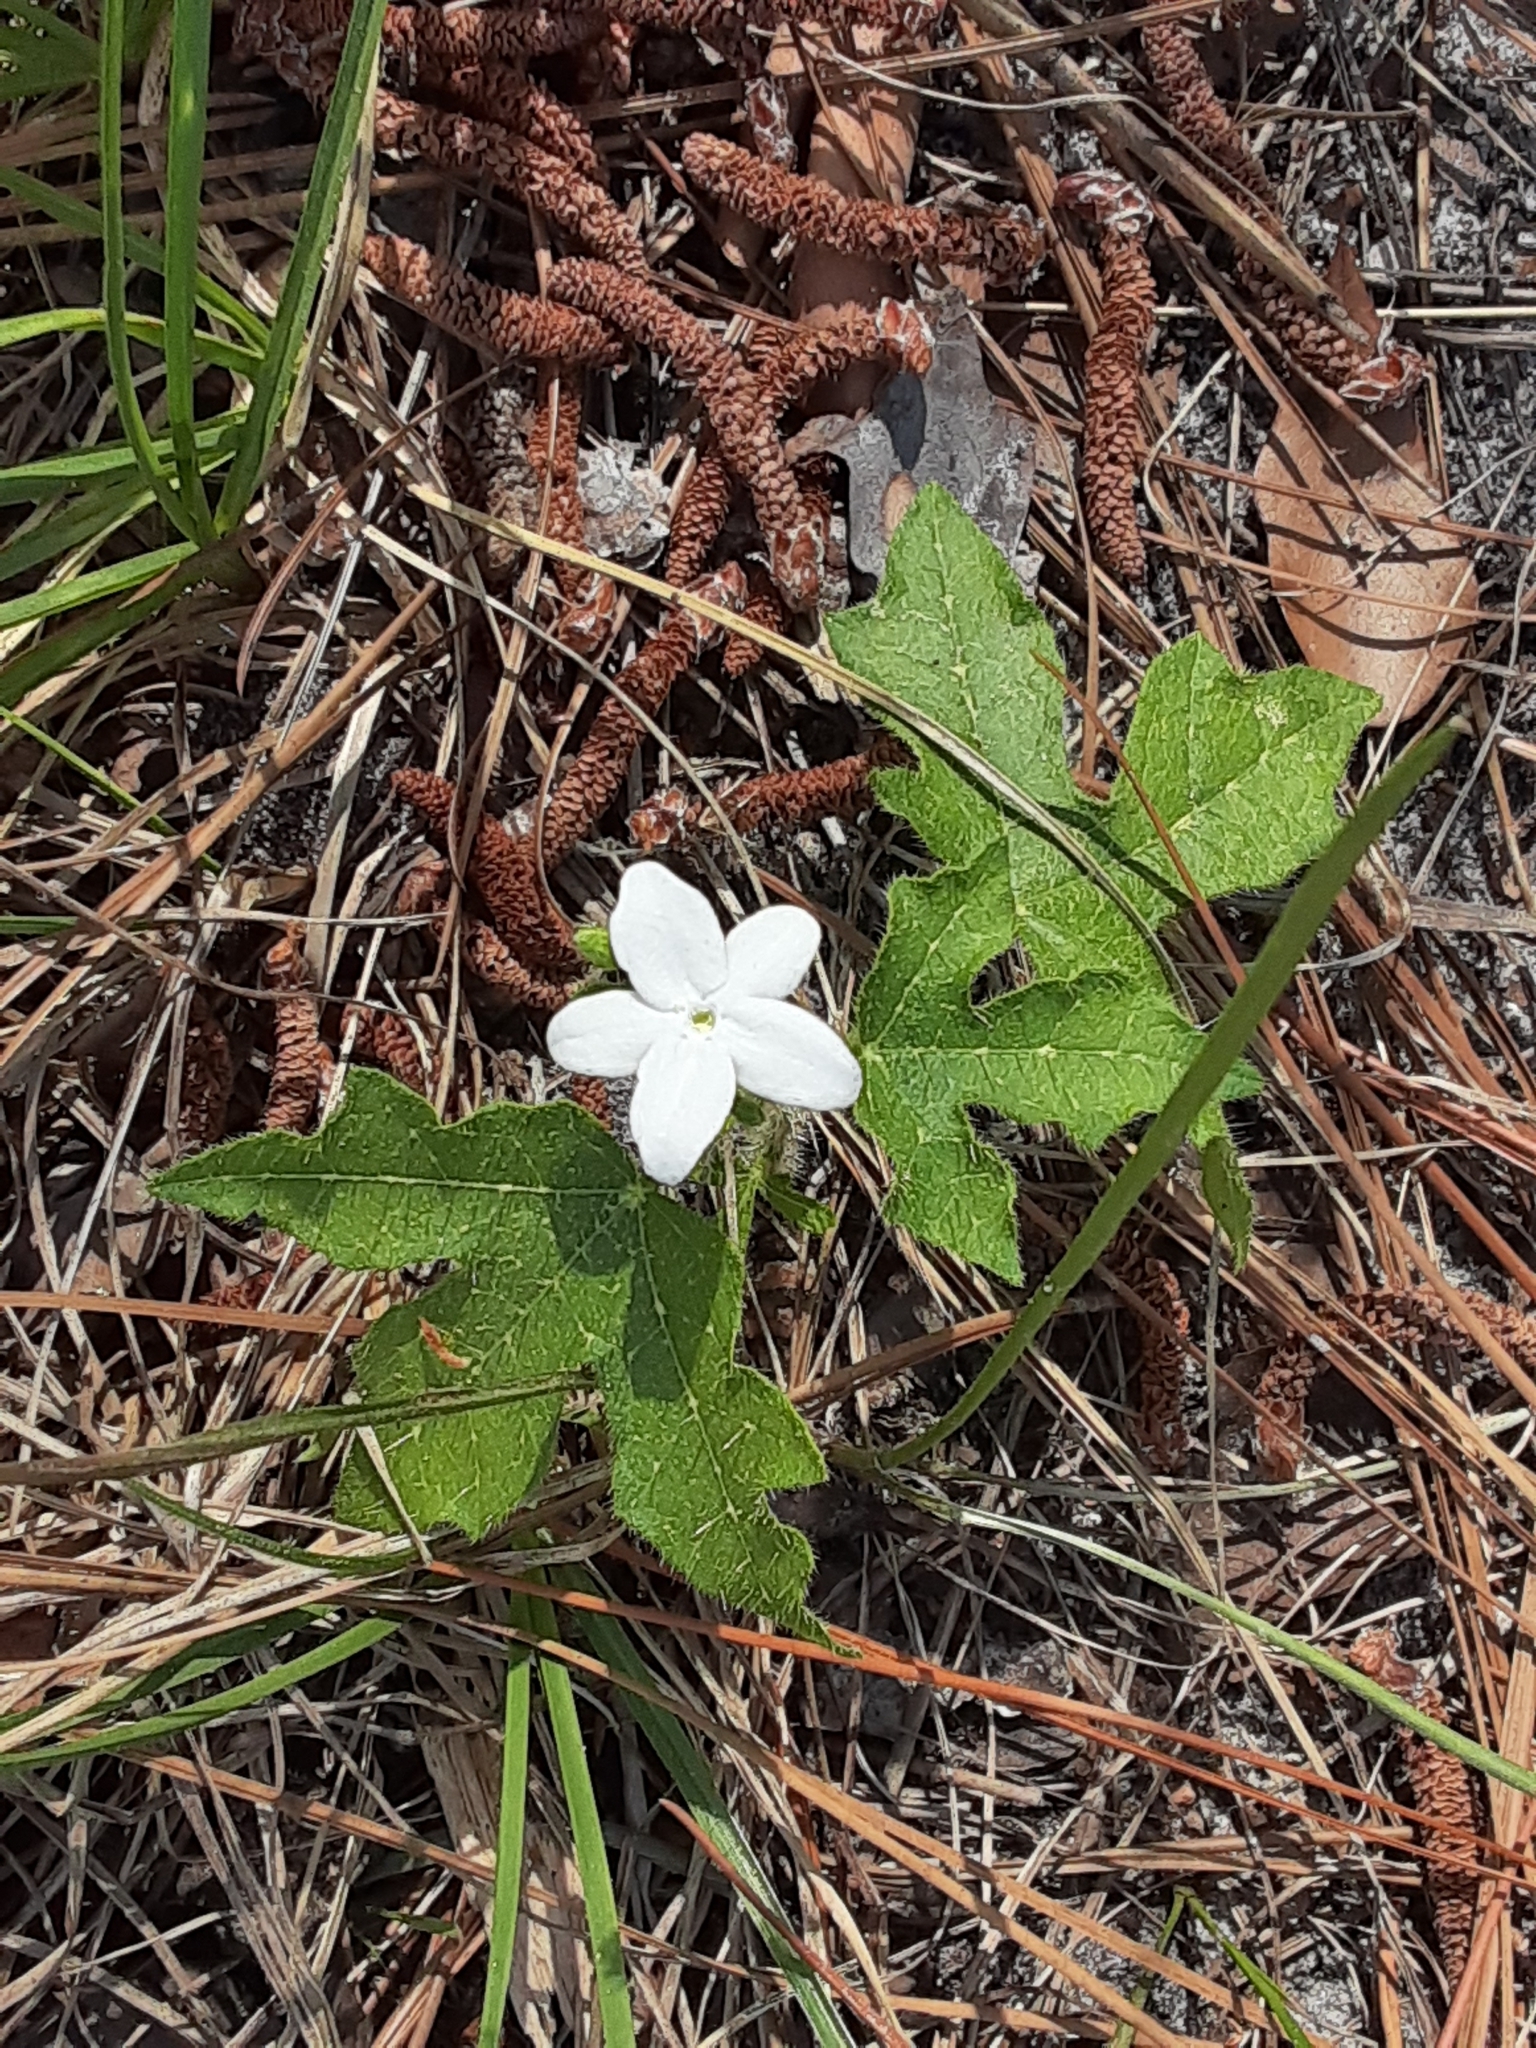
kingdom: Plantae
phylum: Tracheophyta
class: Magnoliopsida
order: Malpighiales
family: Euphorbiaceae
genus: Cnidoscolus
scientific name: Cnidoscolus stimulosus
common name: Bull-nettle
